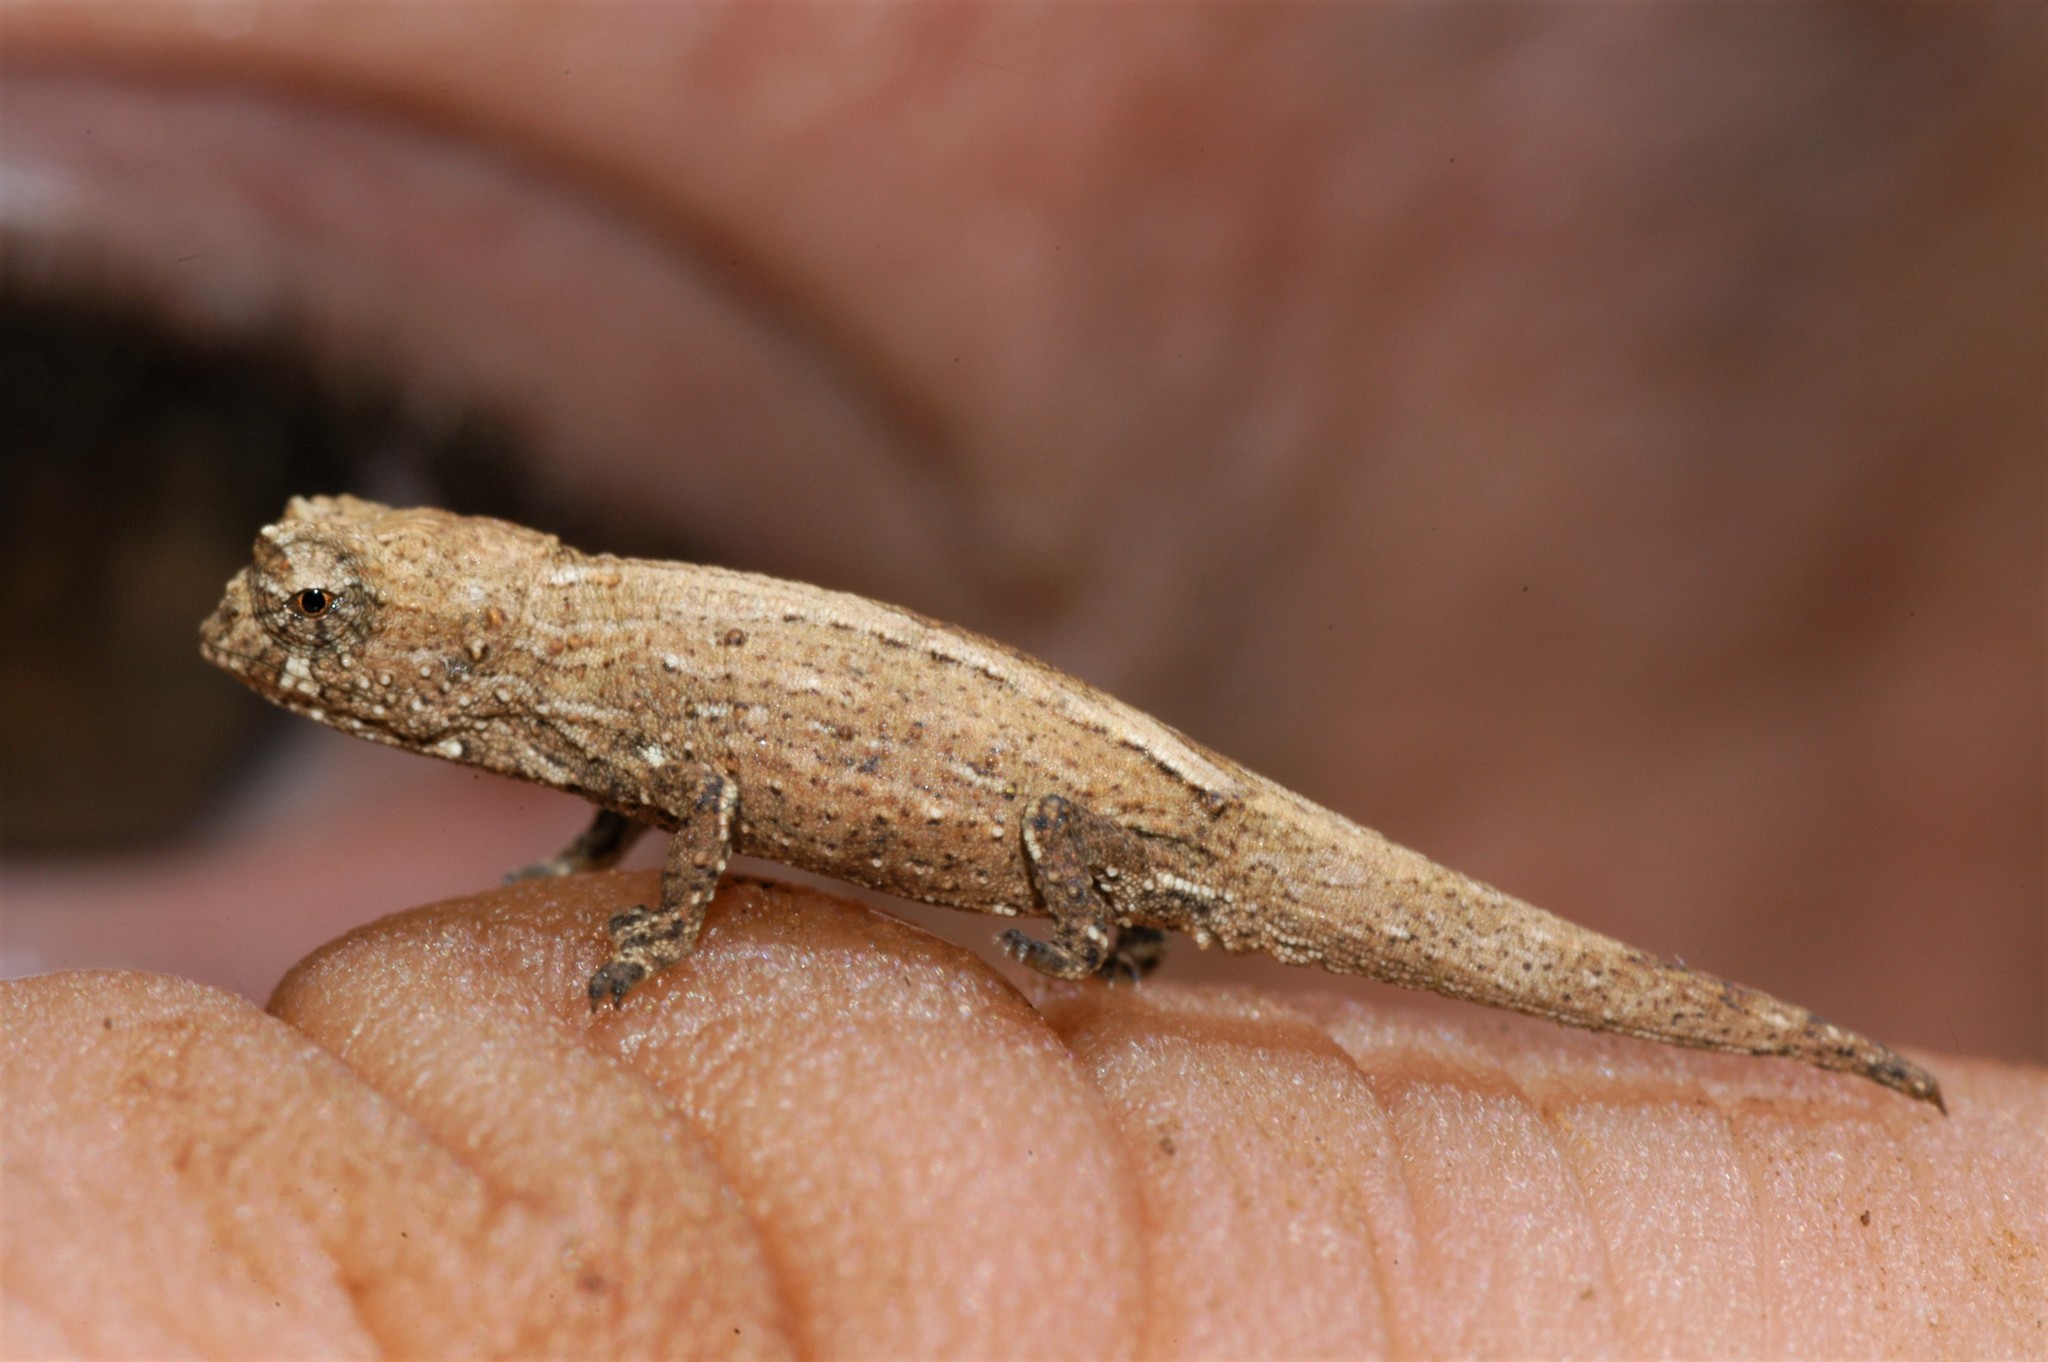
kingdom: Animalia
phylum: Chordata
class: Squamata
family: Chamaeleonidae
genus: Brookesia
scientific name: Brookesia tuberculata
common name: Mount d'ambre leaf chameleon
